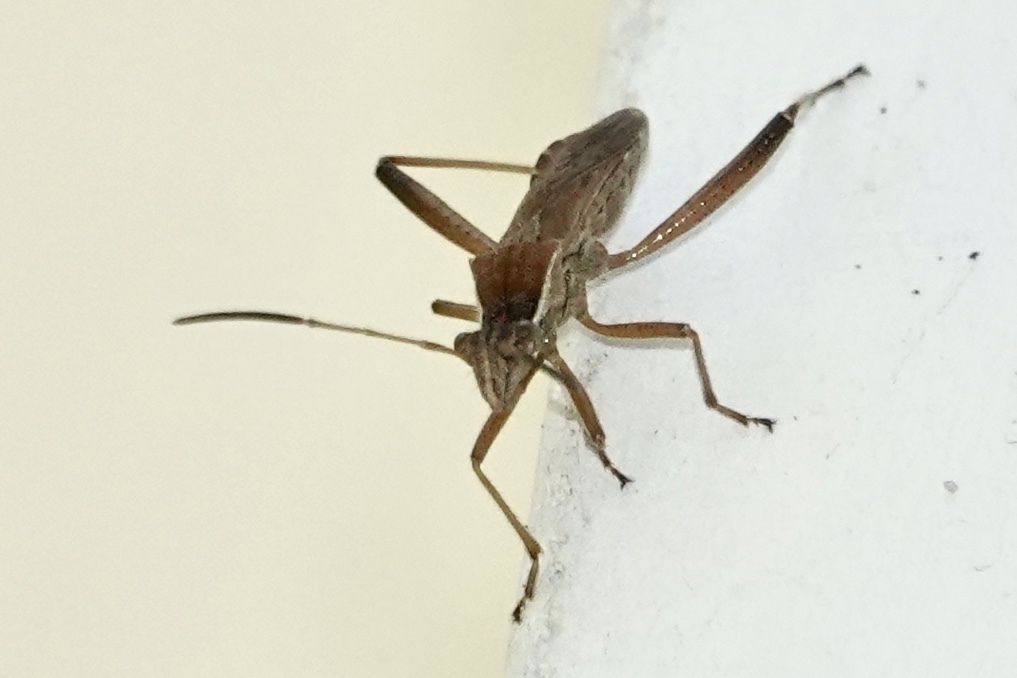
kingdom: Animalia
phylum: Arthropoda
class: Insecta
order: Hemiptera
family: Alydidae
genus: Alydus
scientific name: Alydus pilosulus
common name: Broad-headed bug
